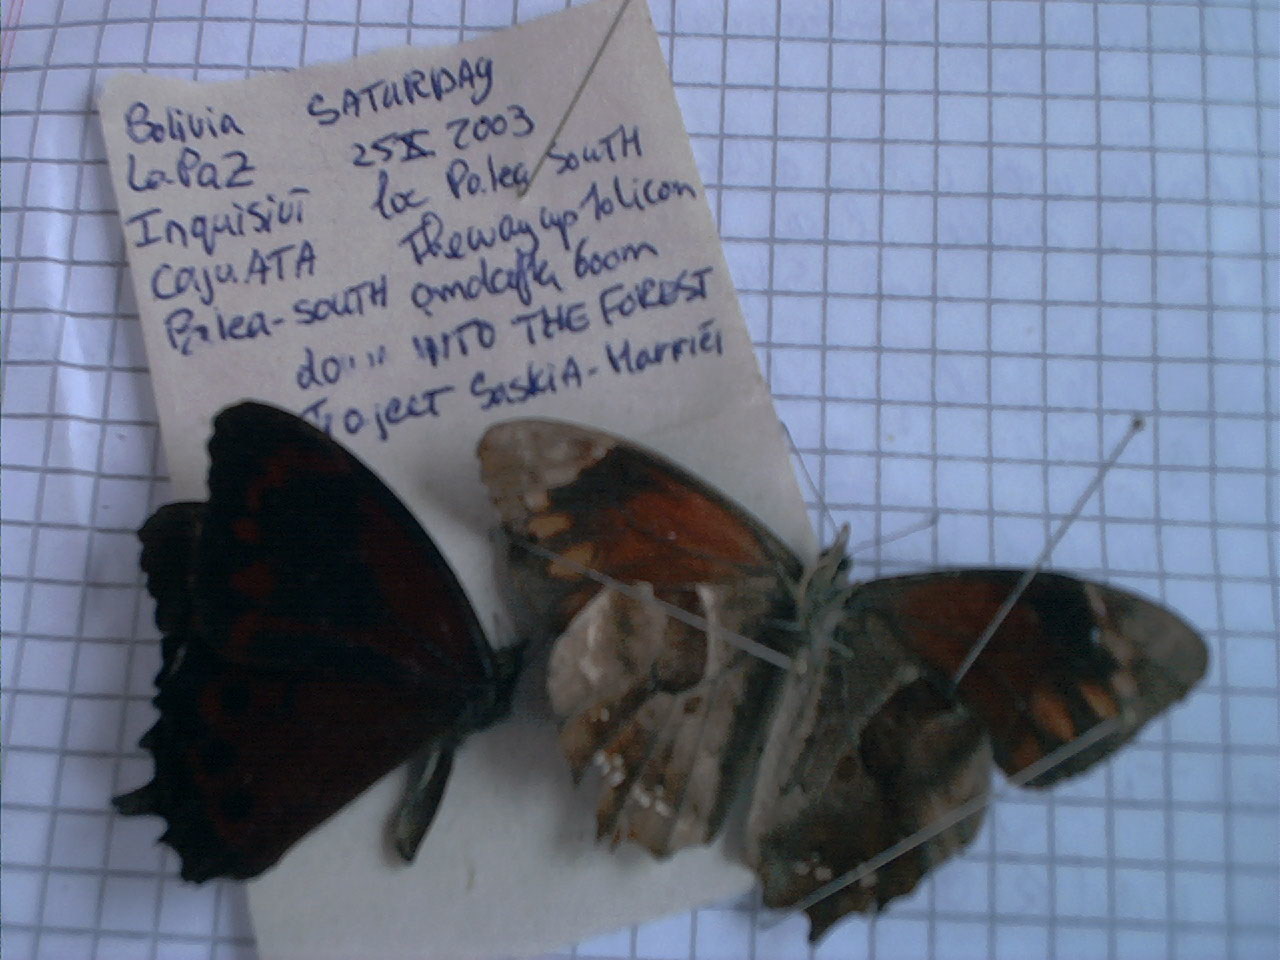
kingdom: Animalia
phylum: Arthropoda
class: Insecta
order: Lepidoptera
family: Nymphalidae
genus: Lasiophila
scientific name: Lasiophila orbifera
